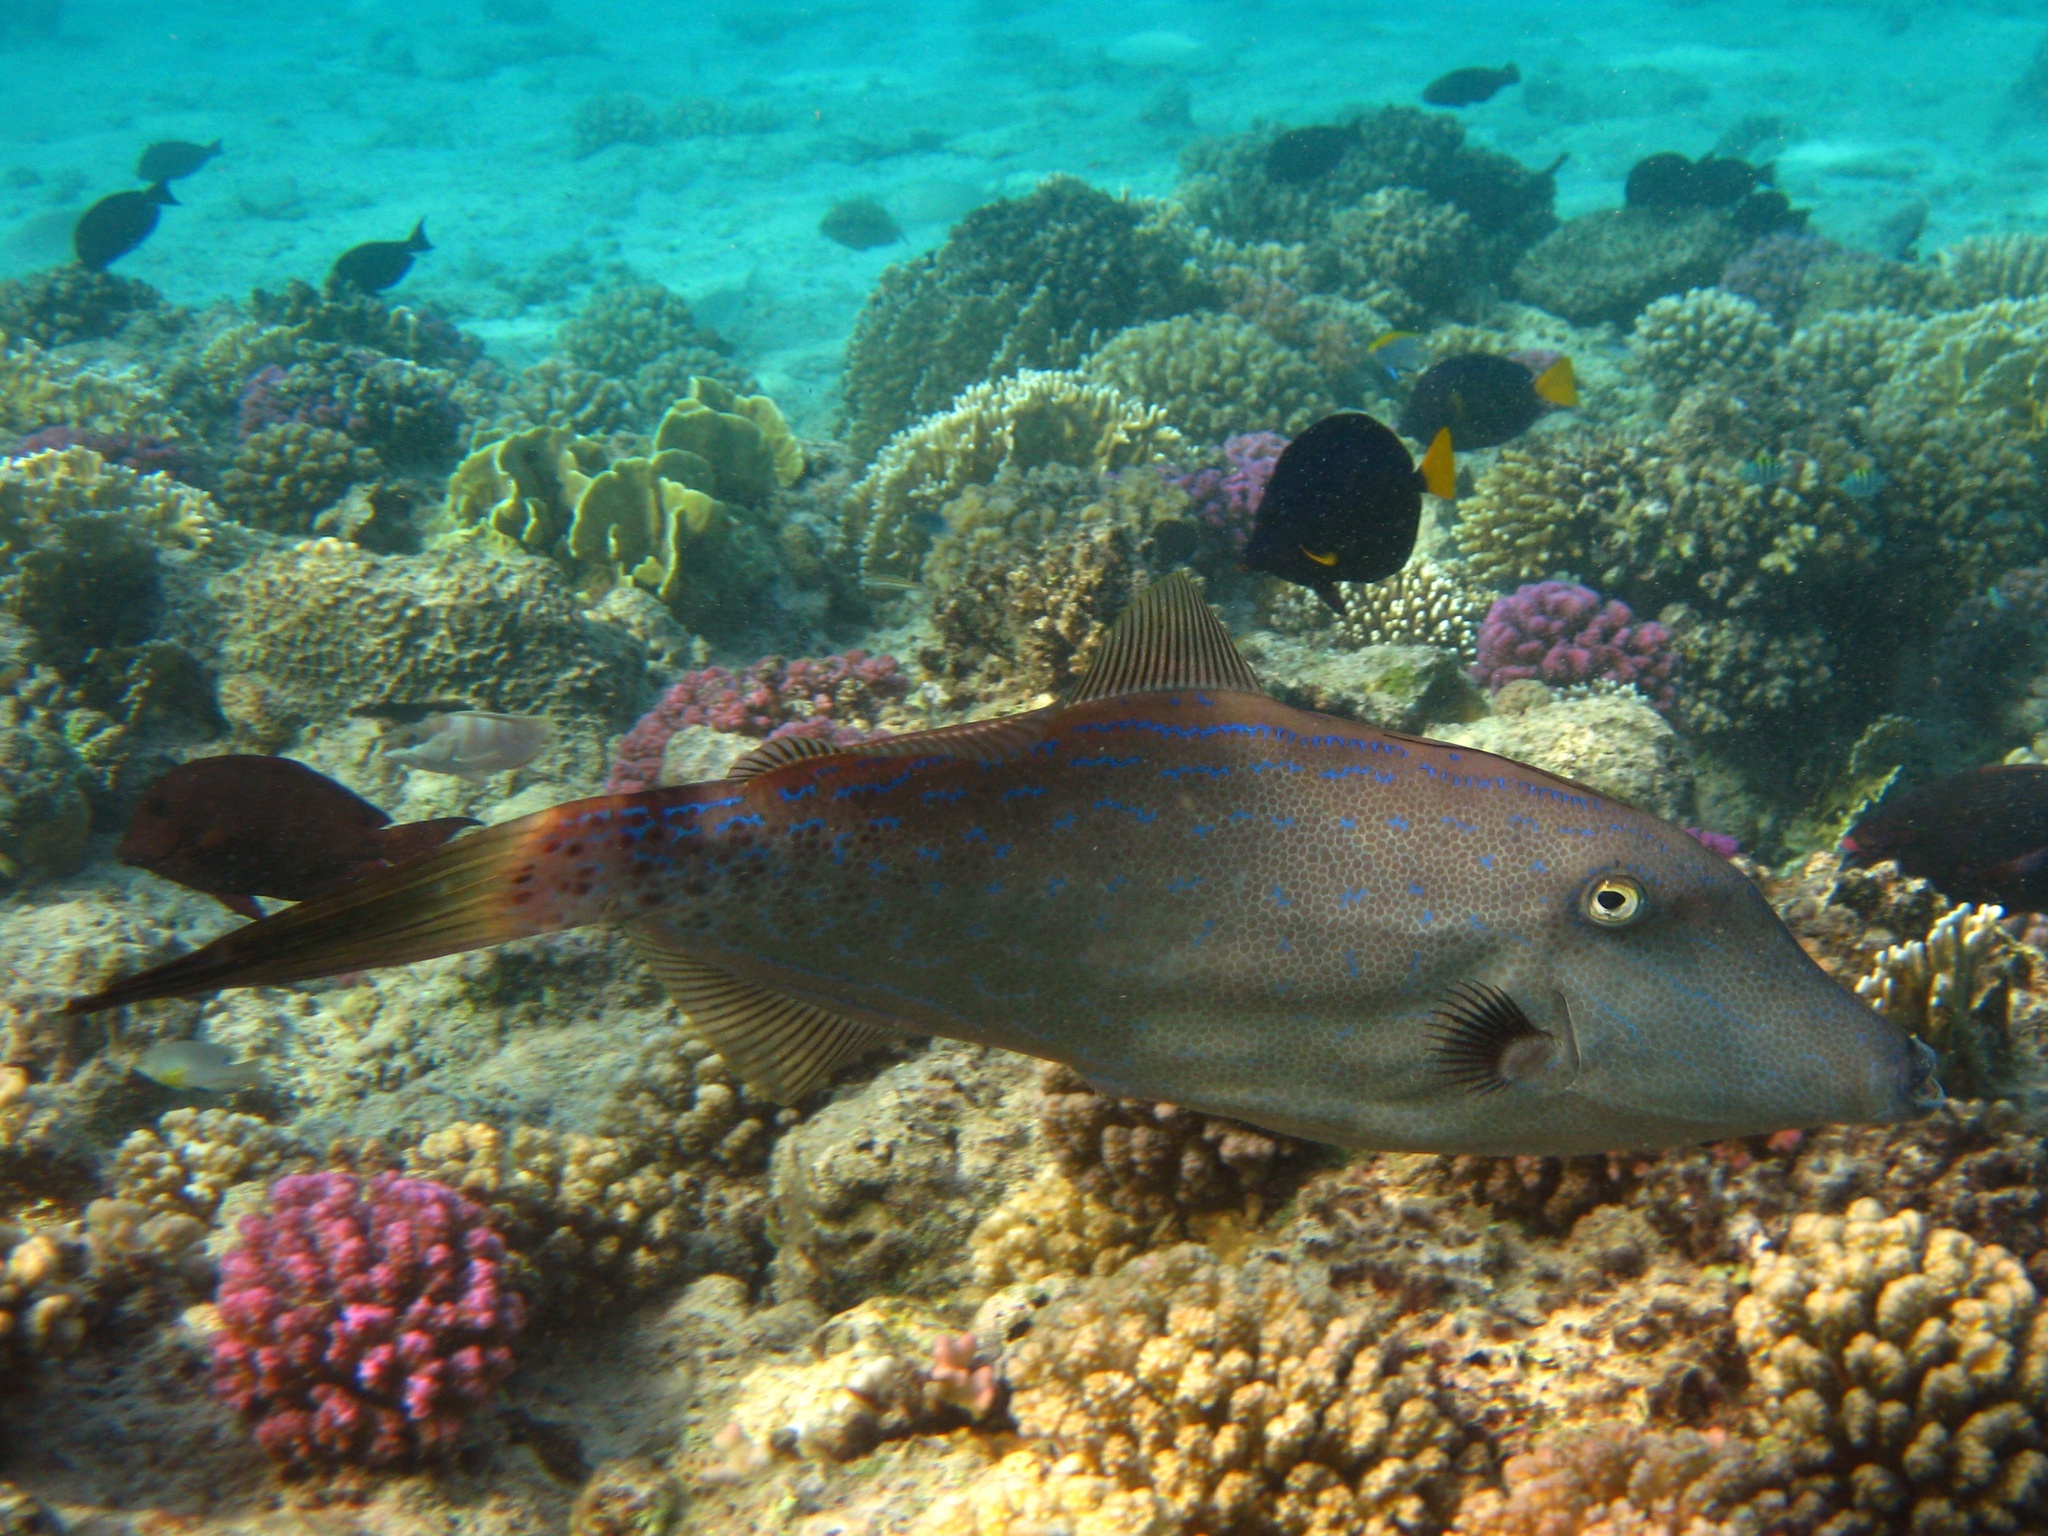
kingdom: Animalia
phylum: Chordata
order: Tetraodontiformes
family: Monacanthidae
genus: Aluterus
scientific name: Aluterus scriptus
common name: Scribbled leatherjacket filefish
